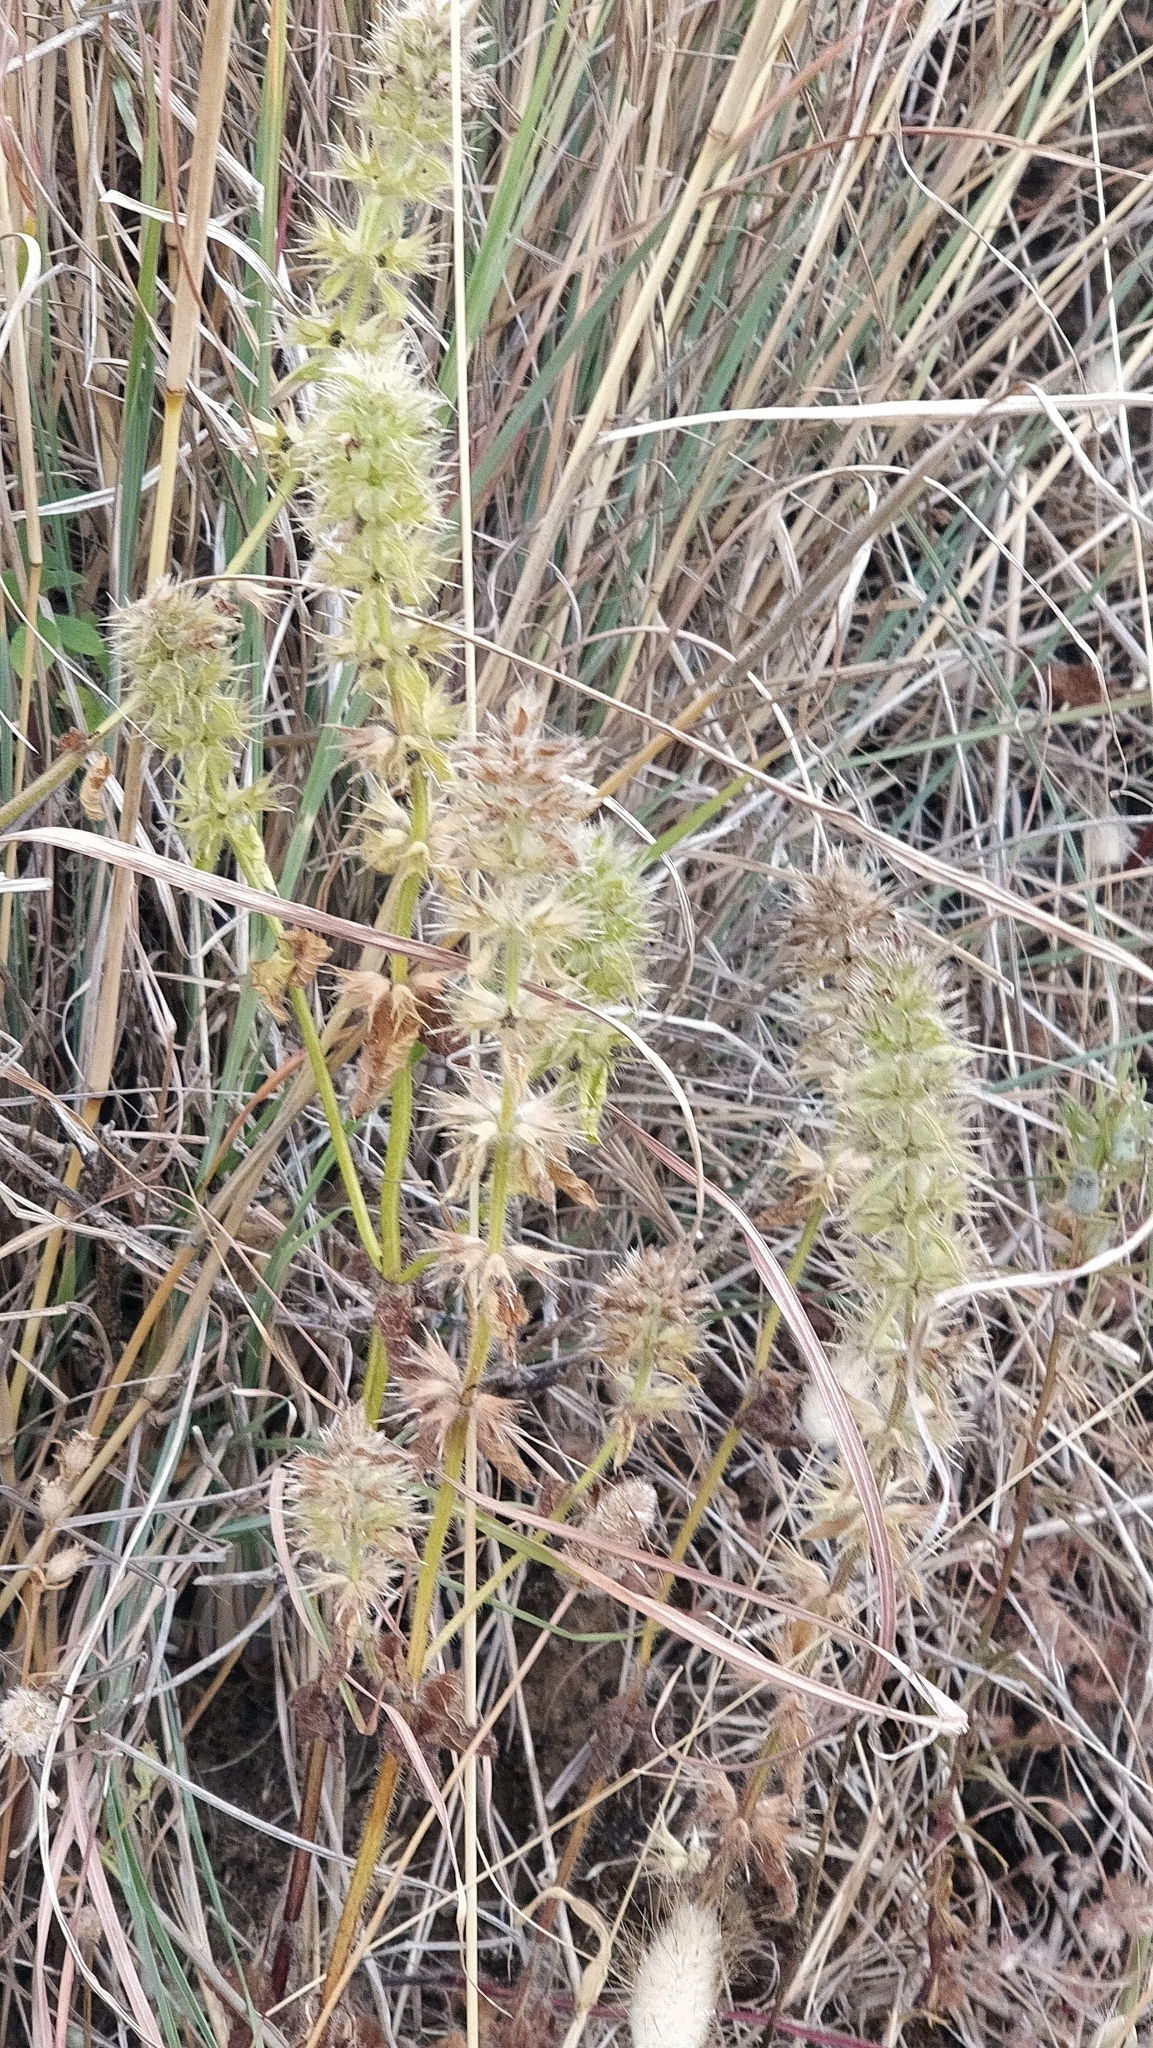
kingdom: Plantae
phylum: Tracheophyta
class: Magnoliopsida
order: Lamiales
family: Lamiaceae
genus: Stachys
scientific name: Stachys ocymastrum
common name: Italian hedgenettle
